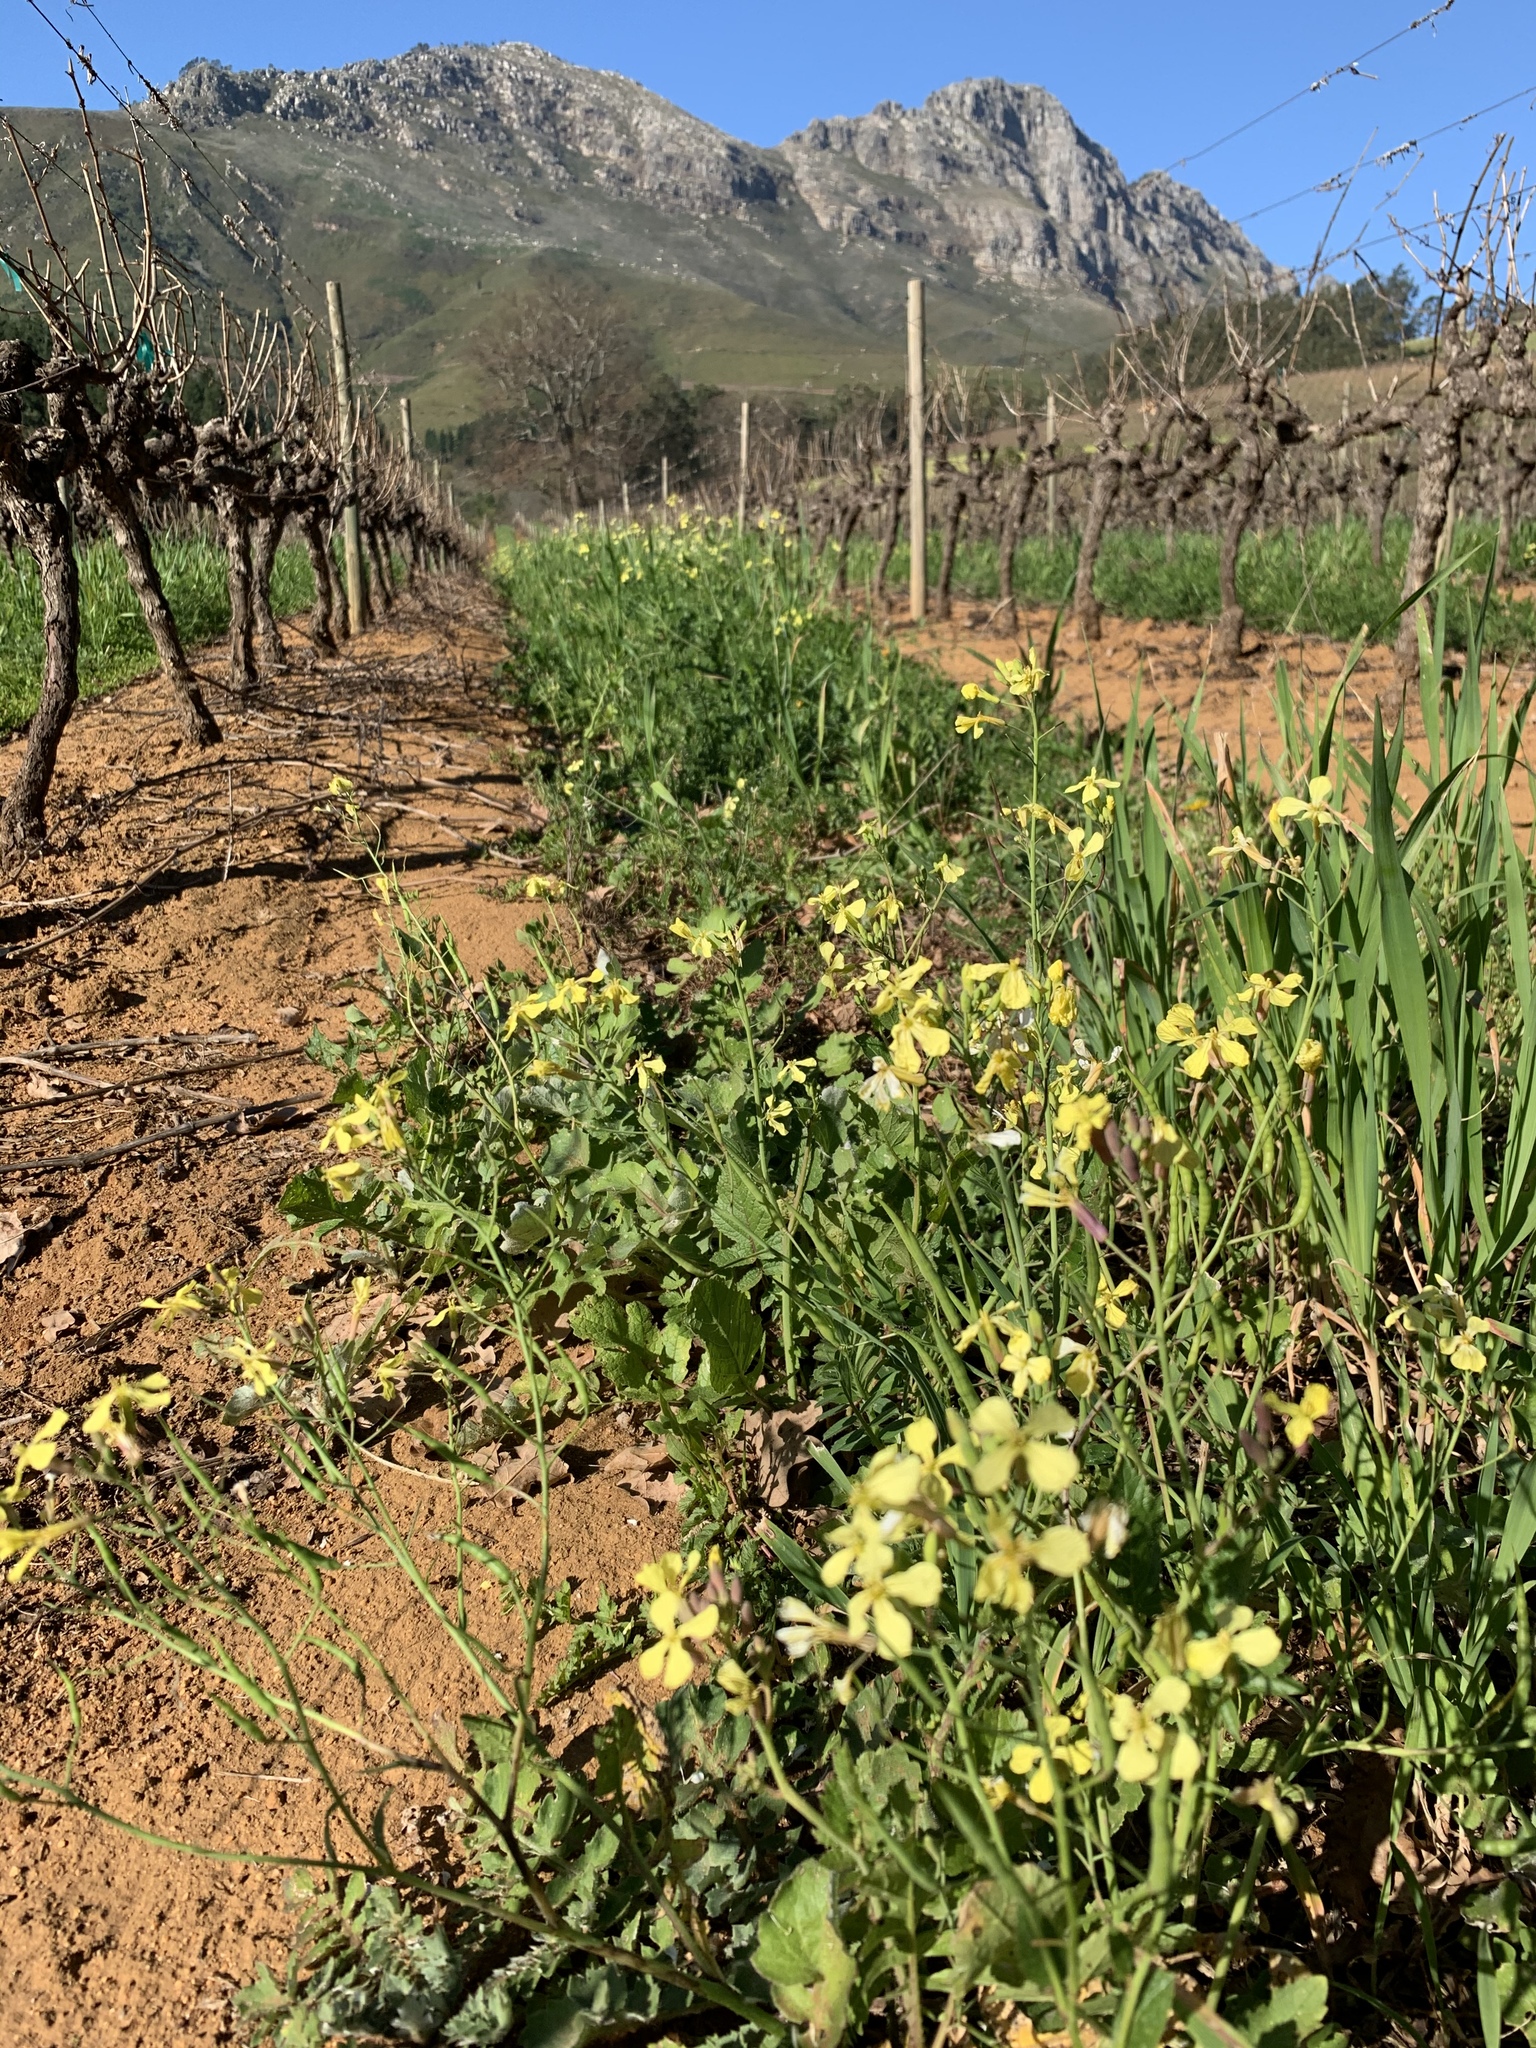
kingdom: Plantae
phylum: Tracheophyta
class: Magnoliopsida
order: Brassicales
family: Brassicaceae
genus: Raphanus
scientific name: Raphanus raphanistrum
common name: Wild radish
